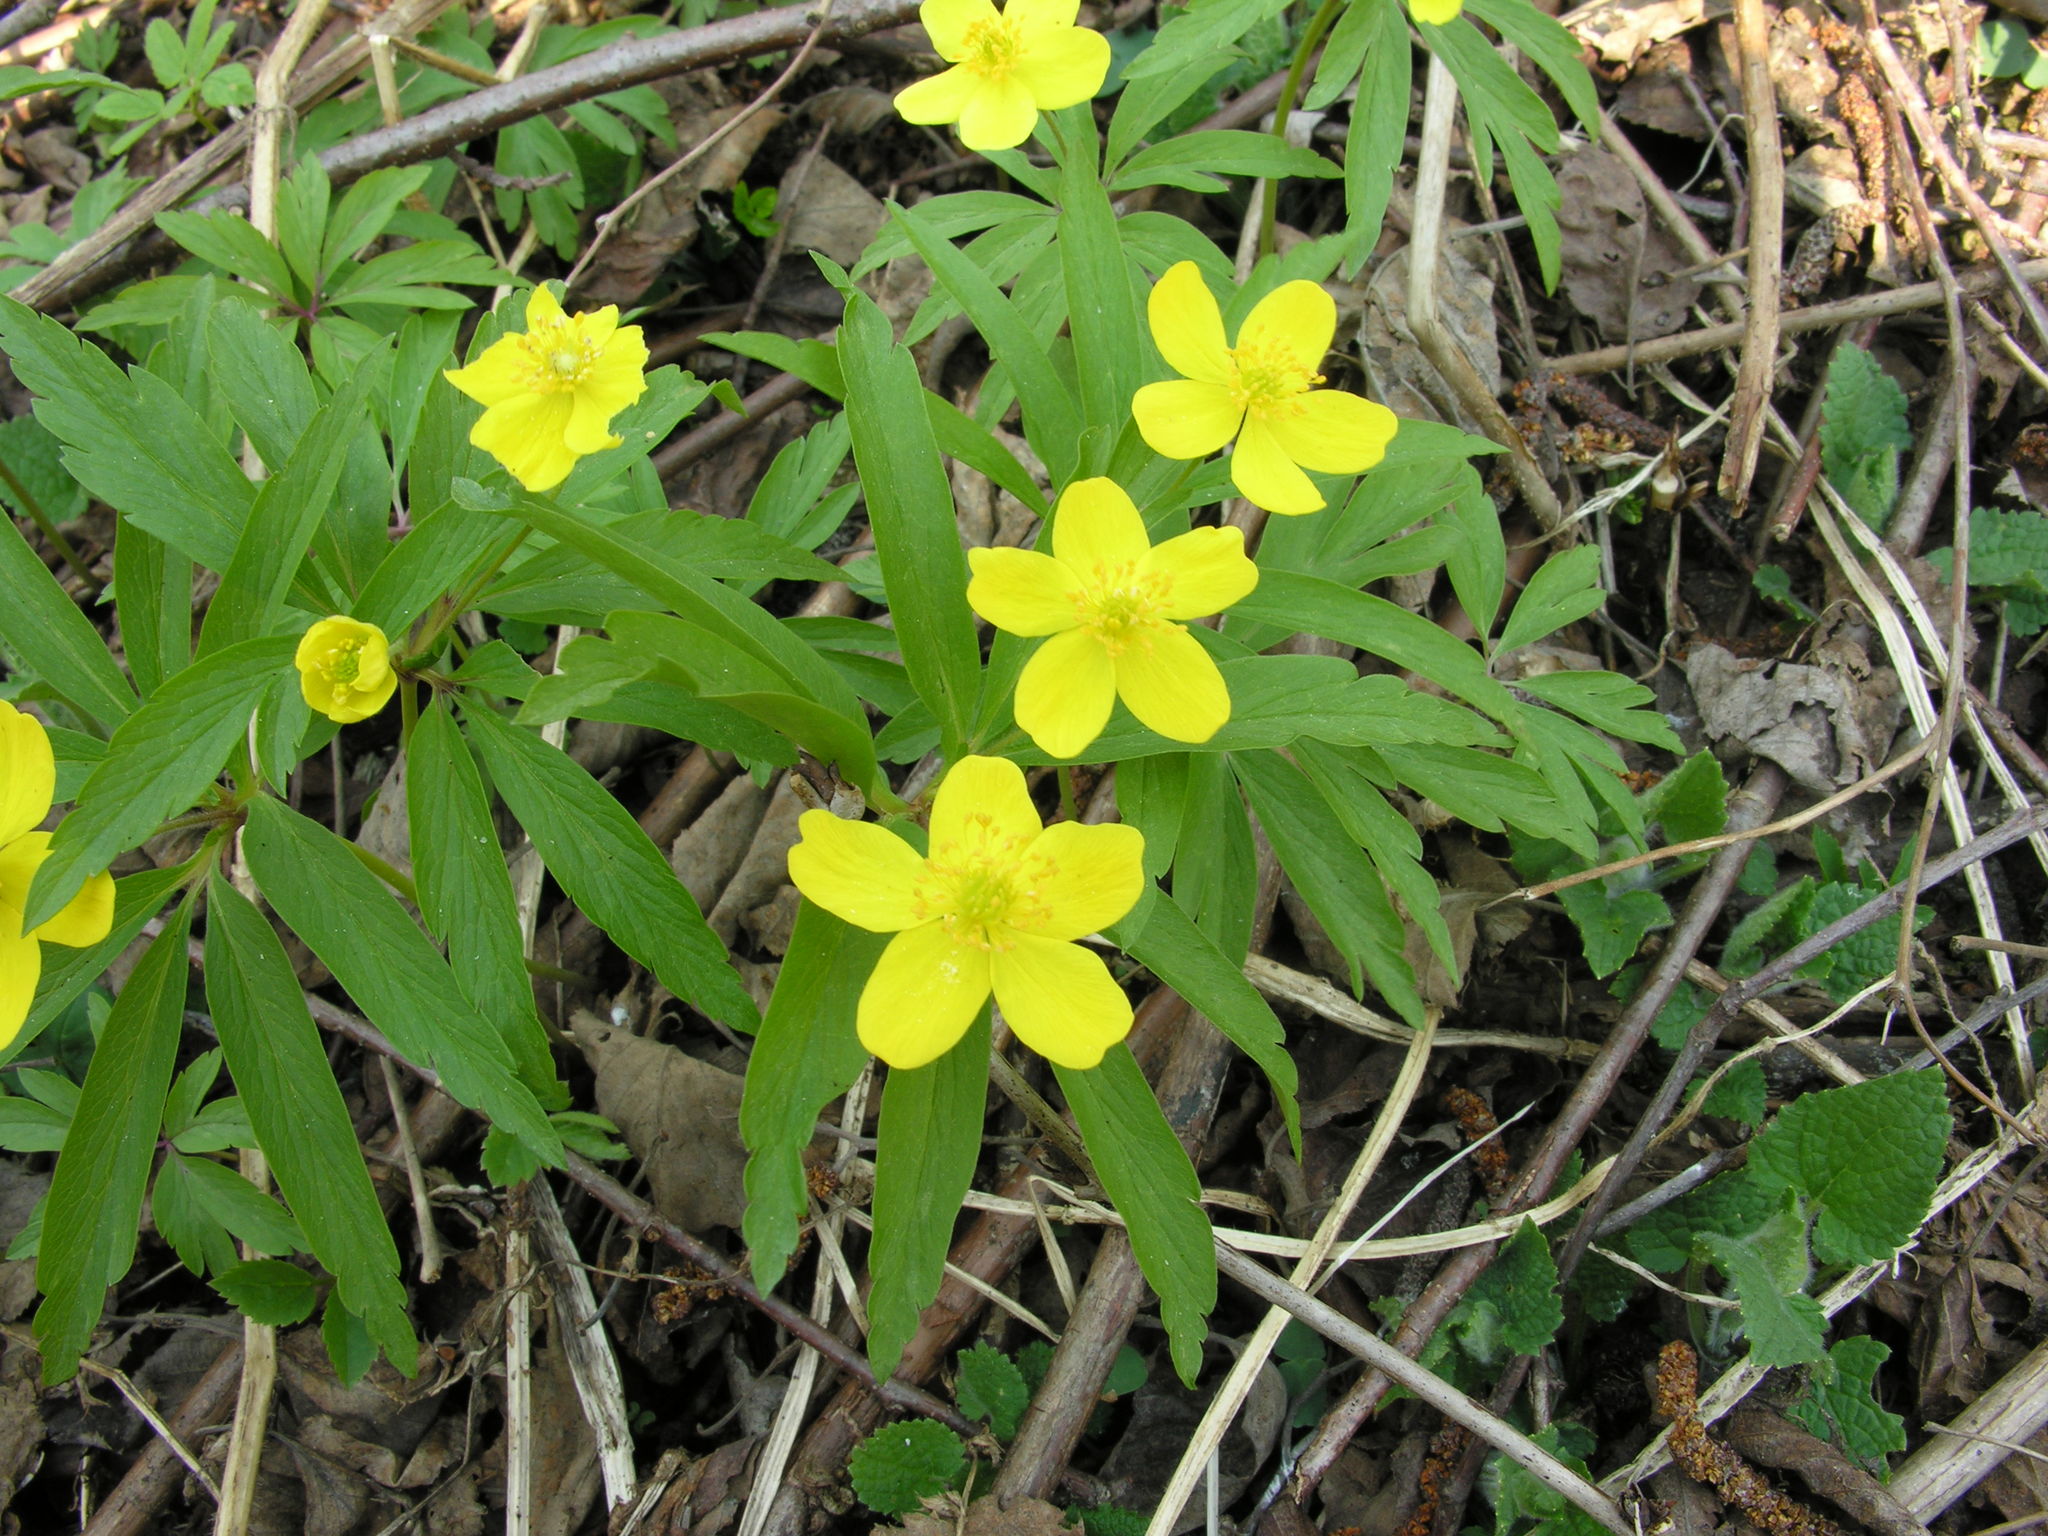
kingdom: Plantae
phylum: Tracheophyta
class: Magnoliopsida
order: Ranunculales
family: Ranunculaceae
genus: Anemone
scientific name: Anemone ranunculoides
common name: Yellow anemone
